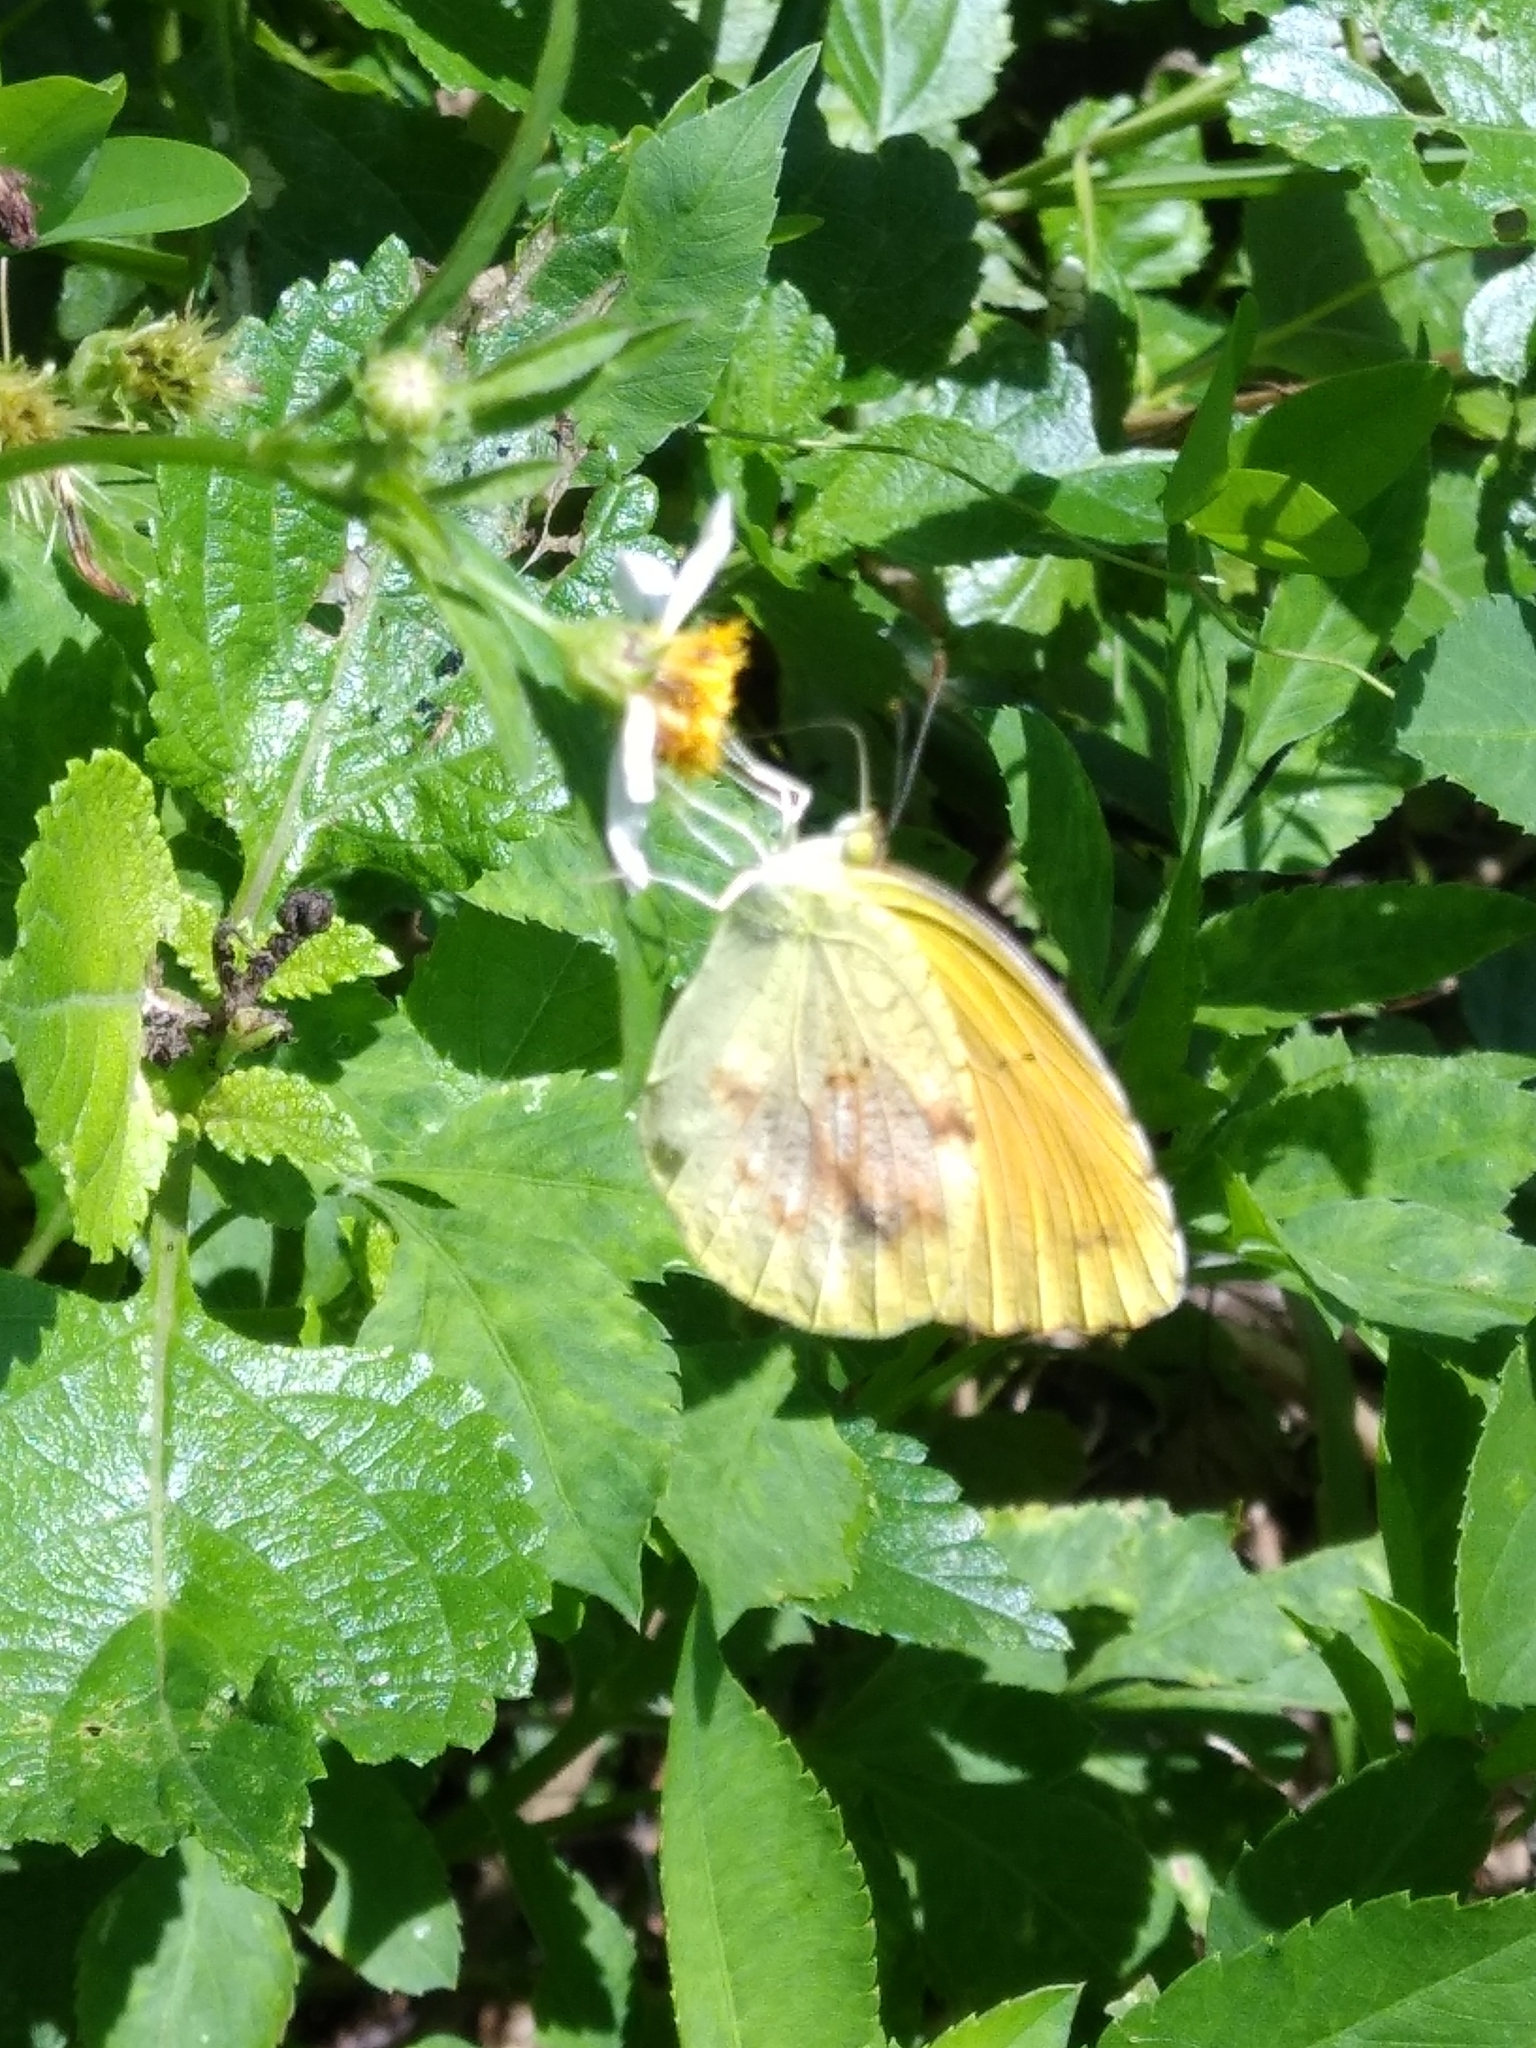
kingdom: Animalia
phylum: Arthropoda
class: Insecta
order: Lepidoptera
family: Pieridae
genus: Abaeis
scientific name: Abaeis nicippe
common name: Sleepy orange
